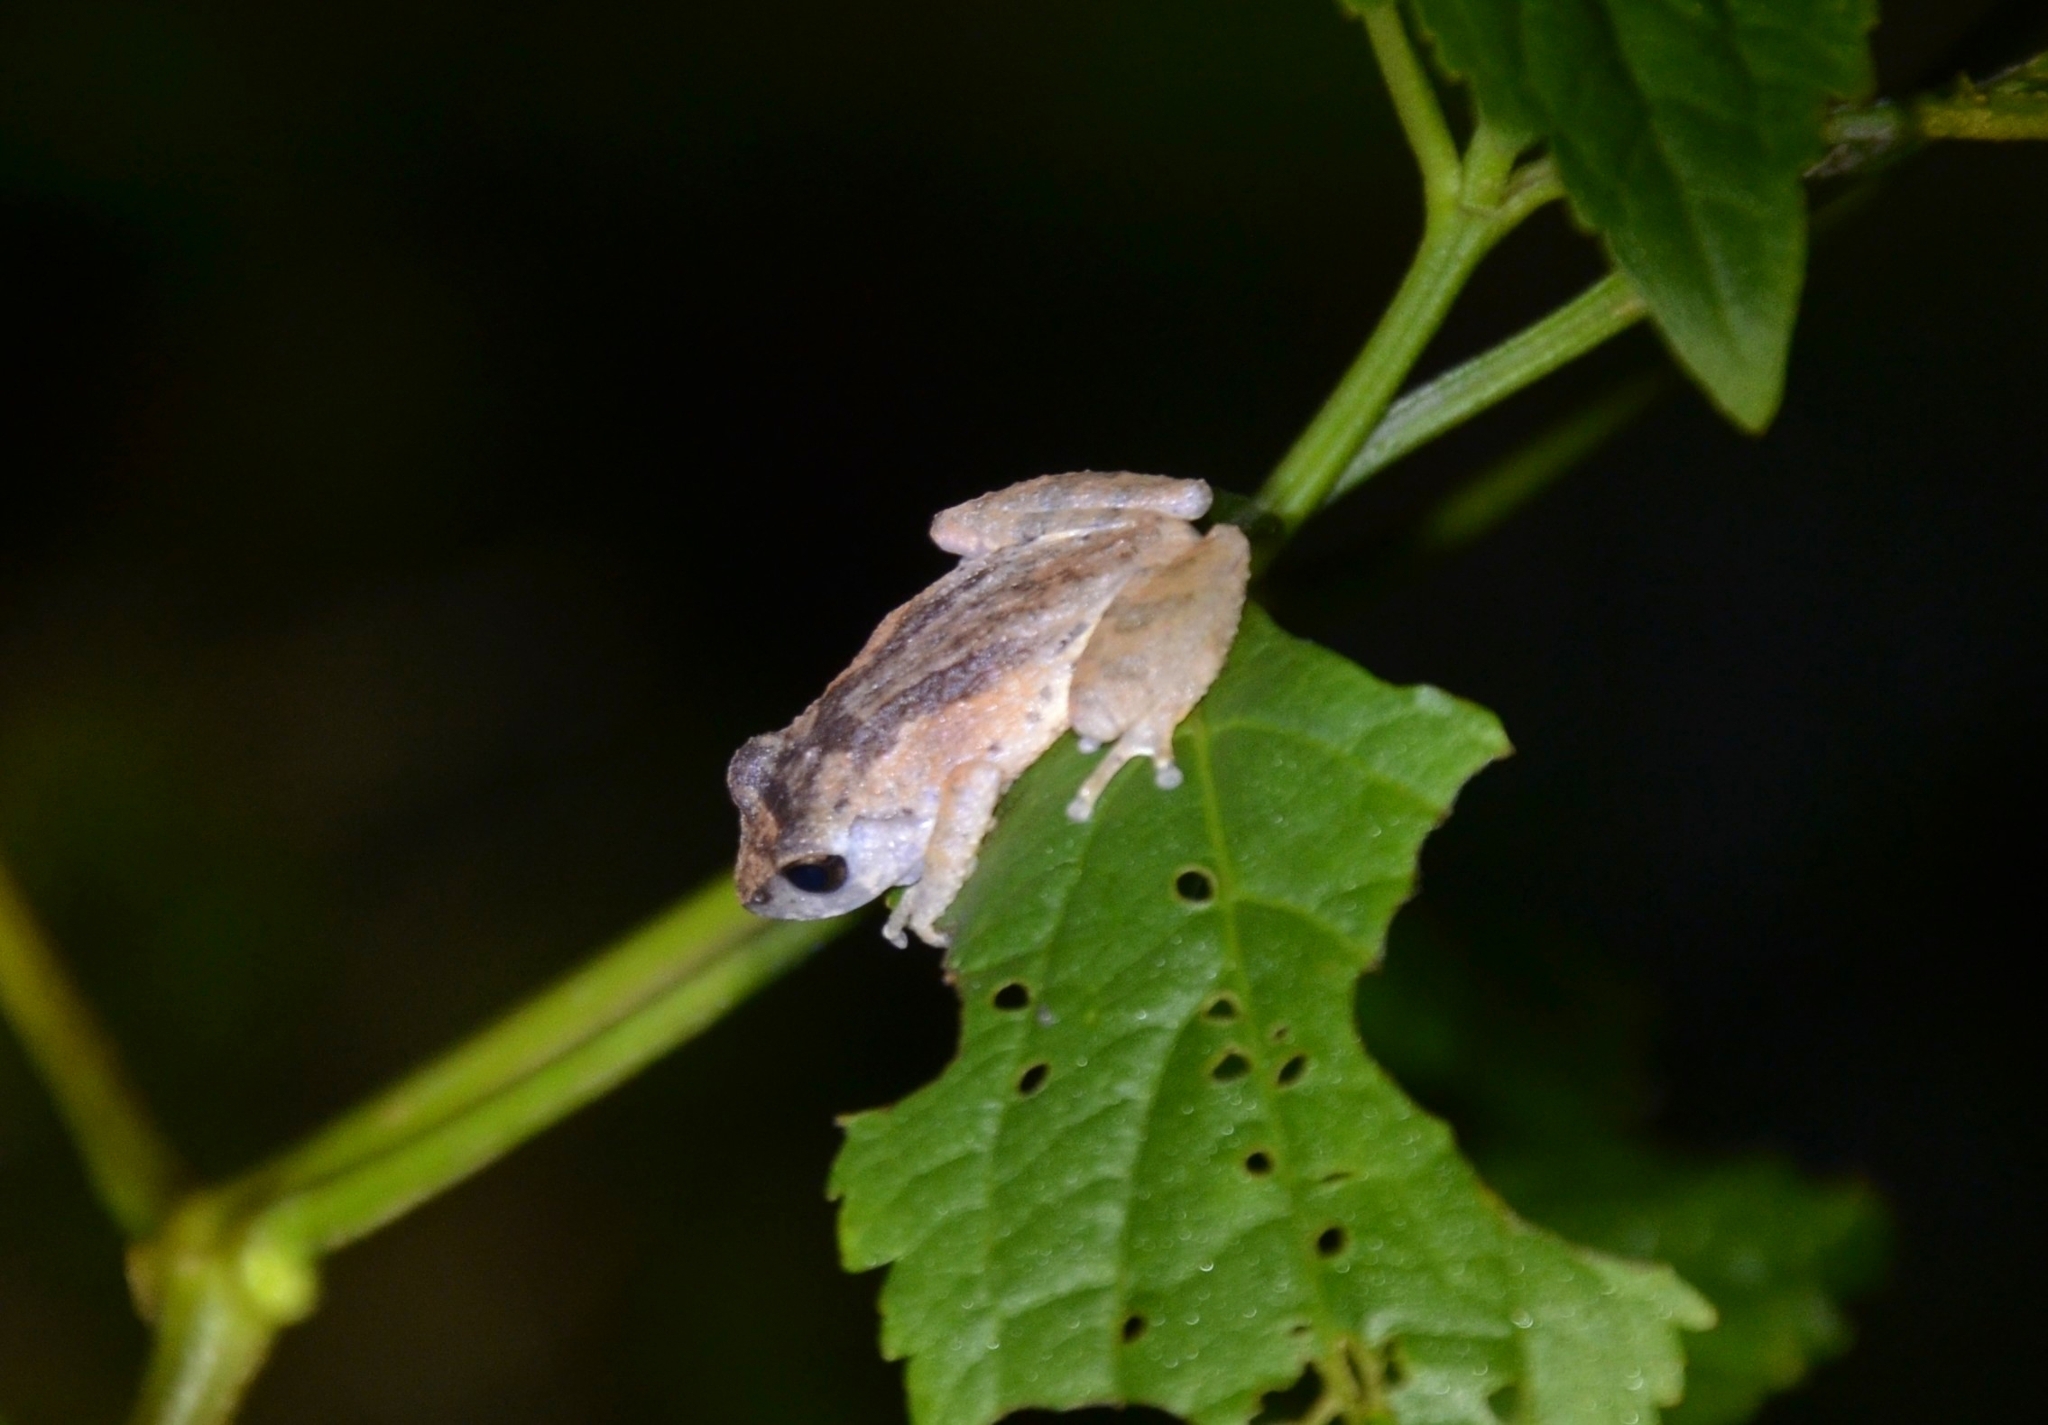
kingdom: Animalia
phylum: Chordata
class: Amphibia
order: Anura
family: Rhacophoridae
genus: Raorchestes
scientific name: Raorchestes blandus
